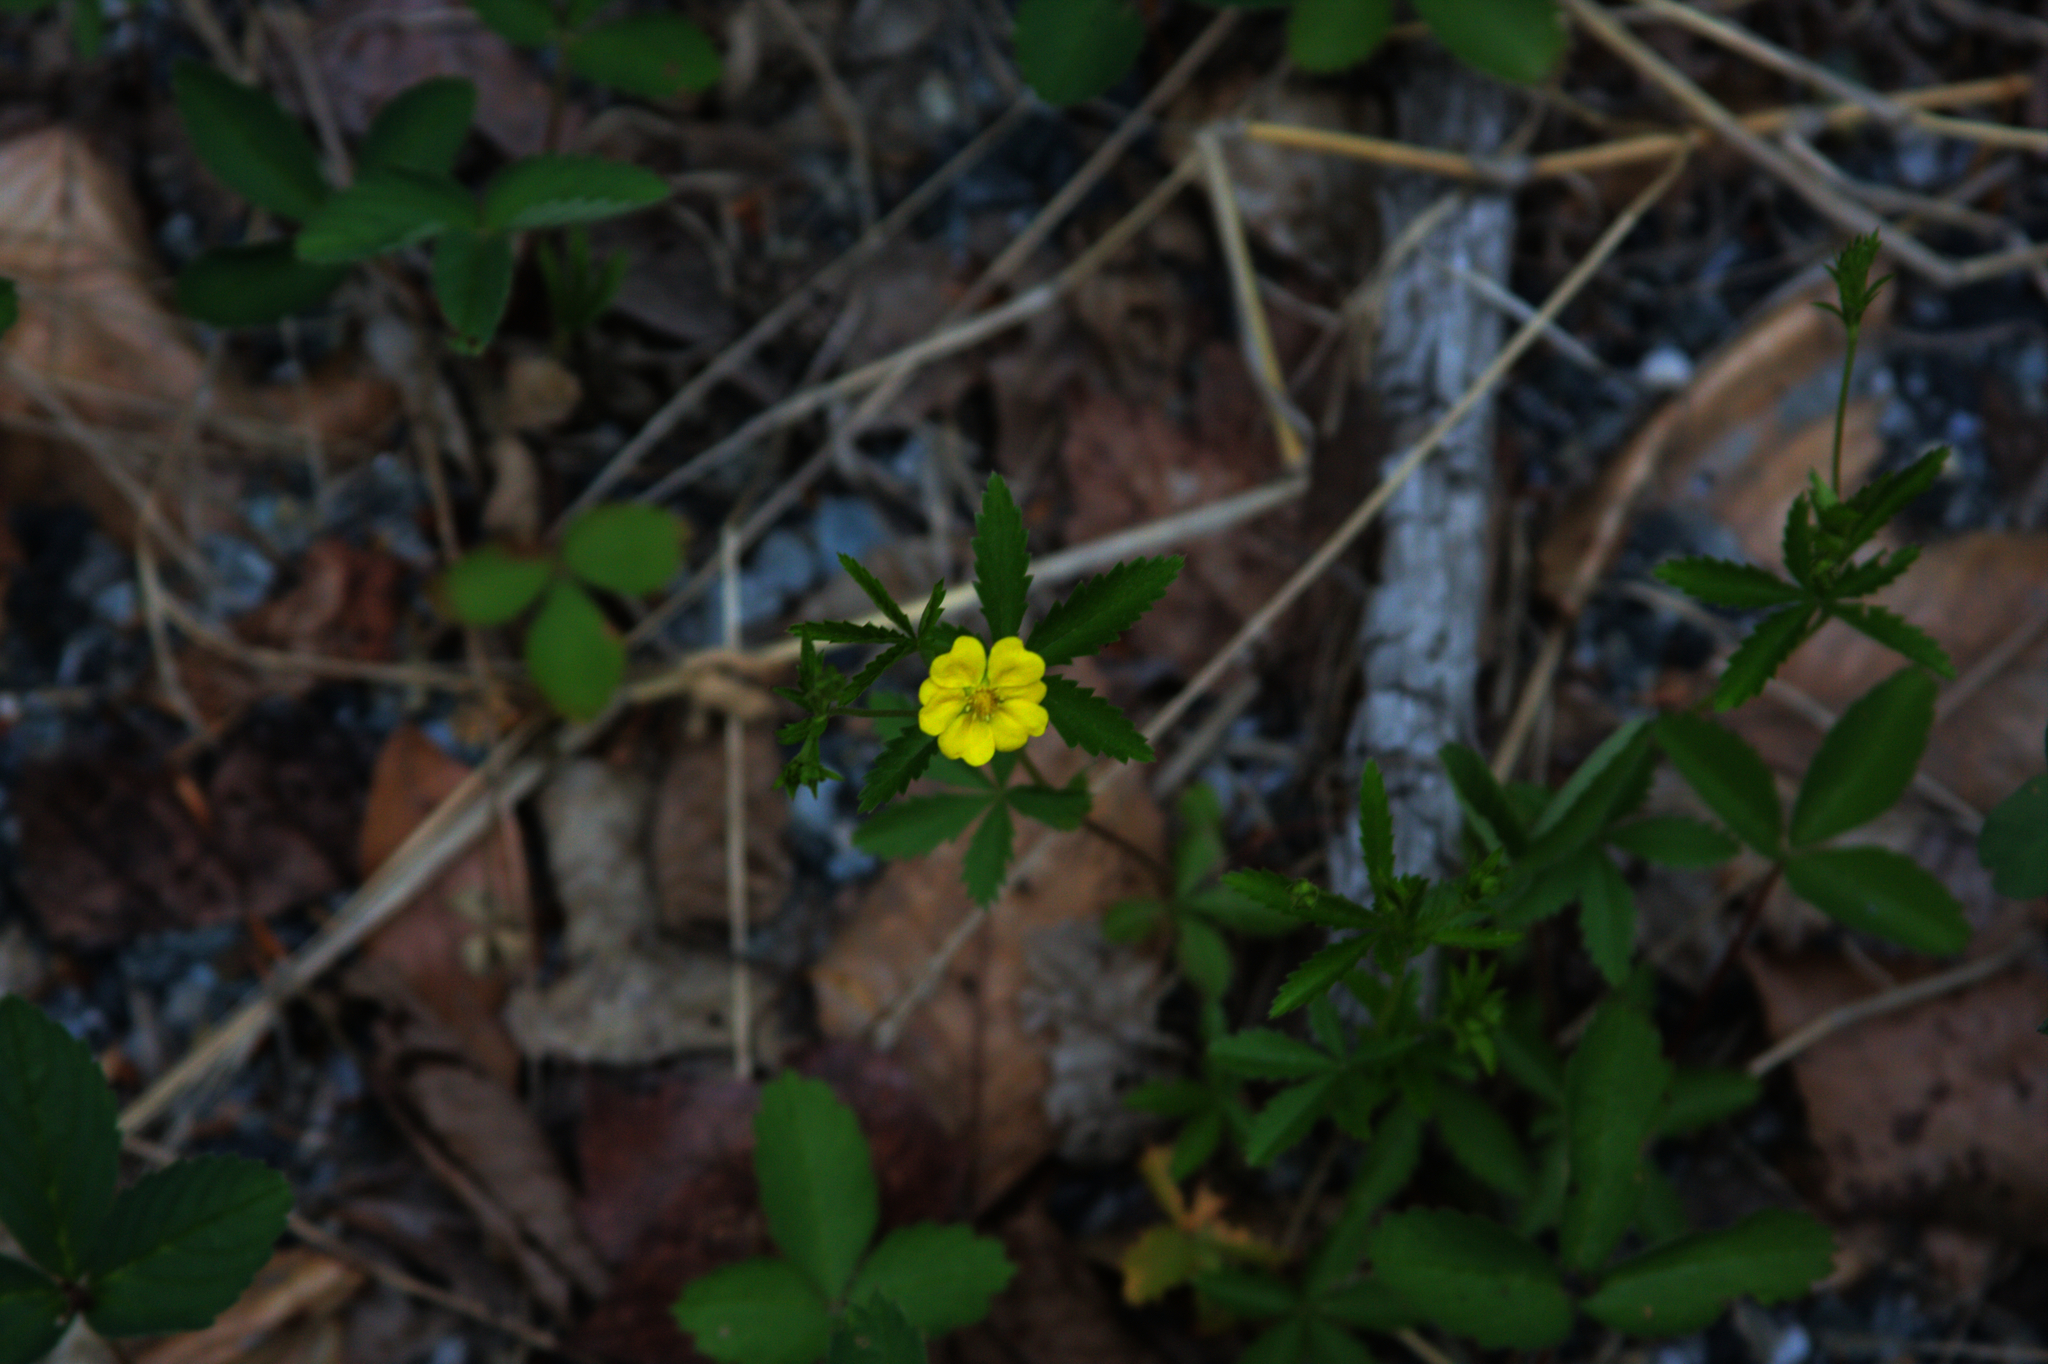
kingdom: Plantae
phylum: Tracheophyta
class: Magnoliopsida
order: Rosales
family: Rosaceae
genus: Potentilla
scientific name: Potentilla simplex
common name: Old field cinquefoil
